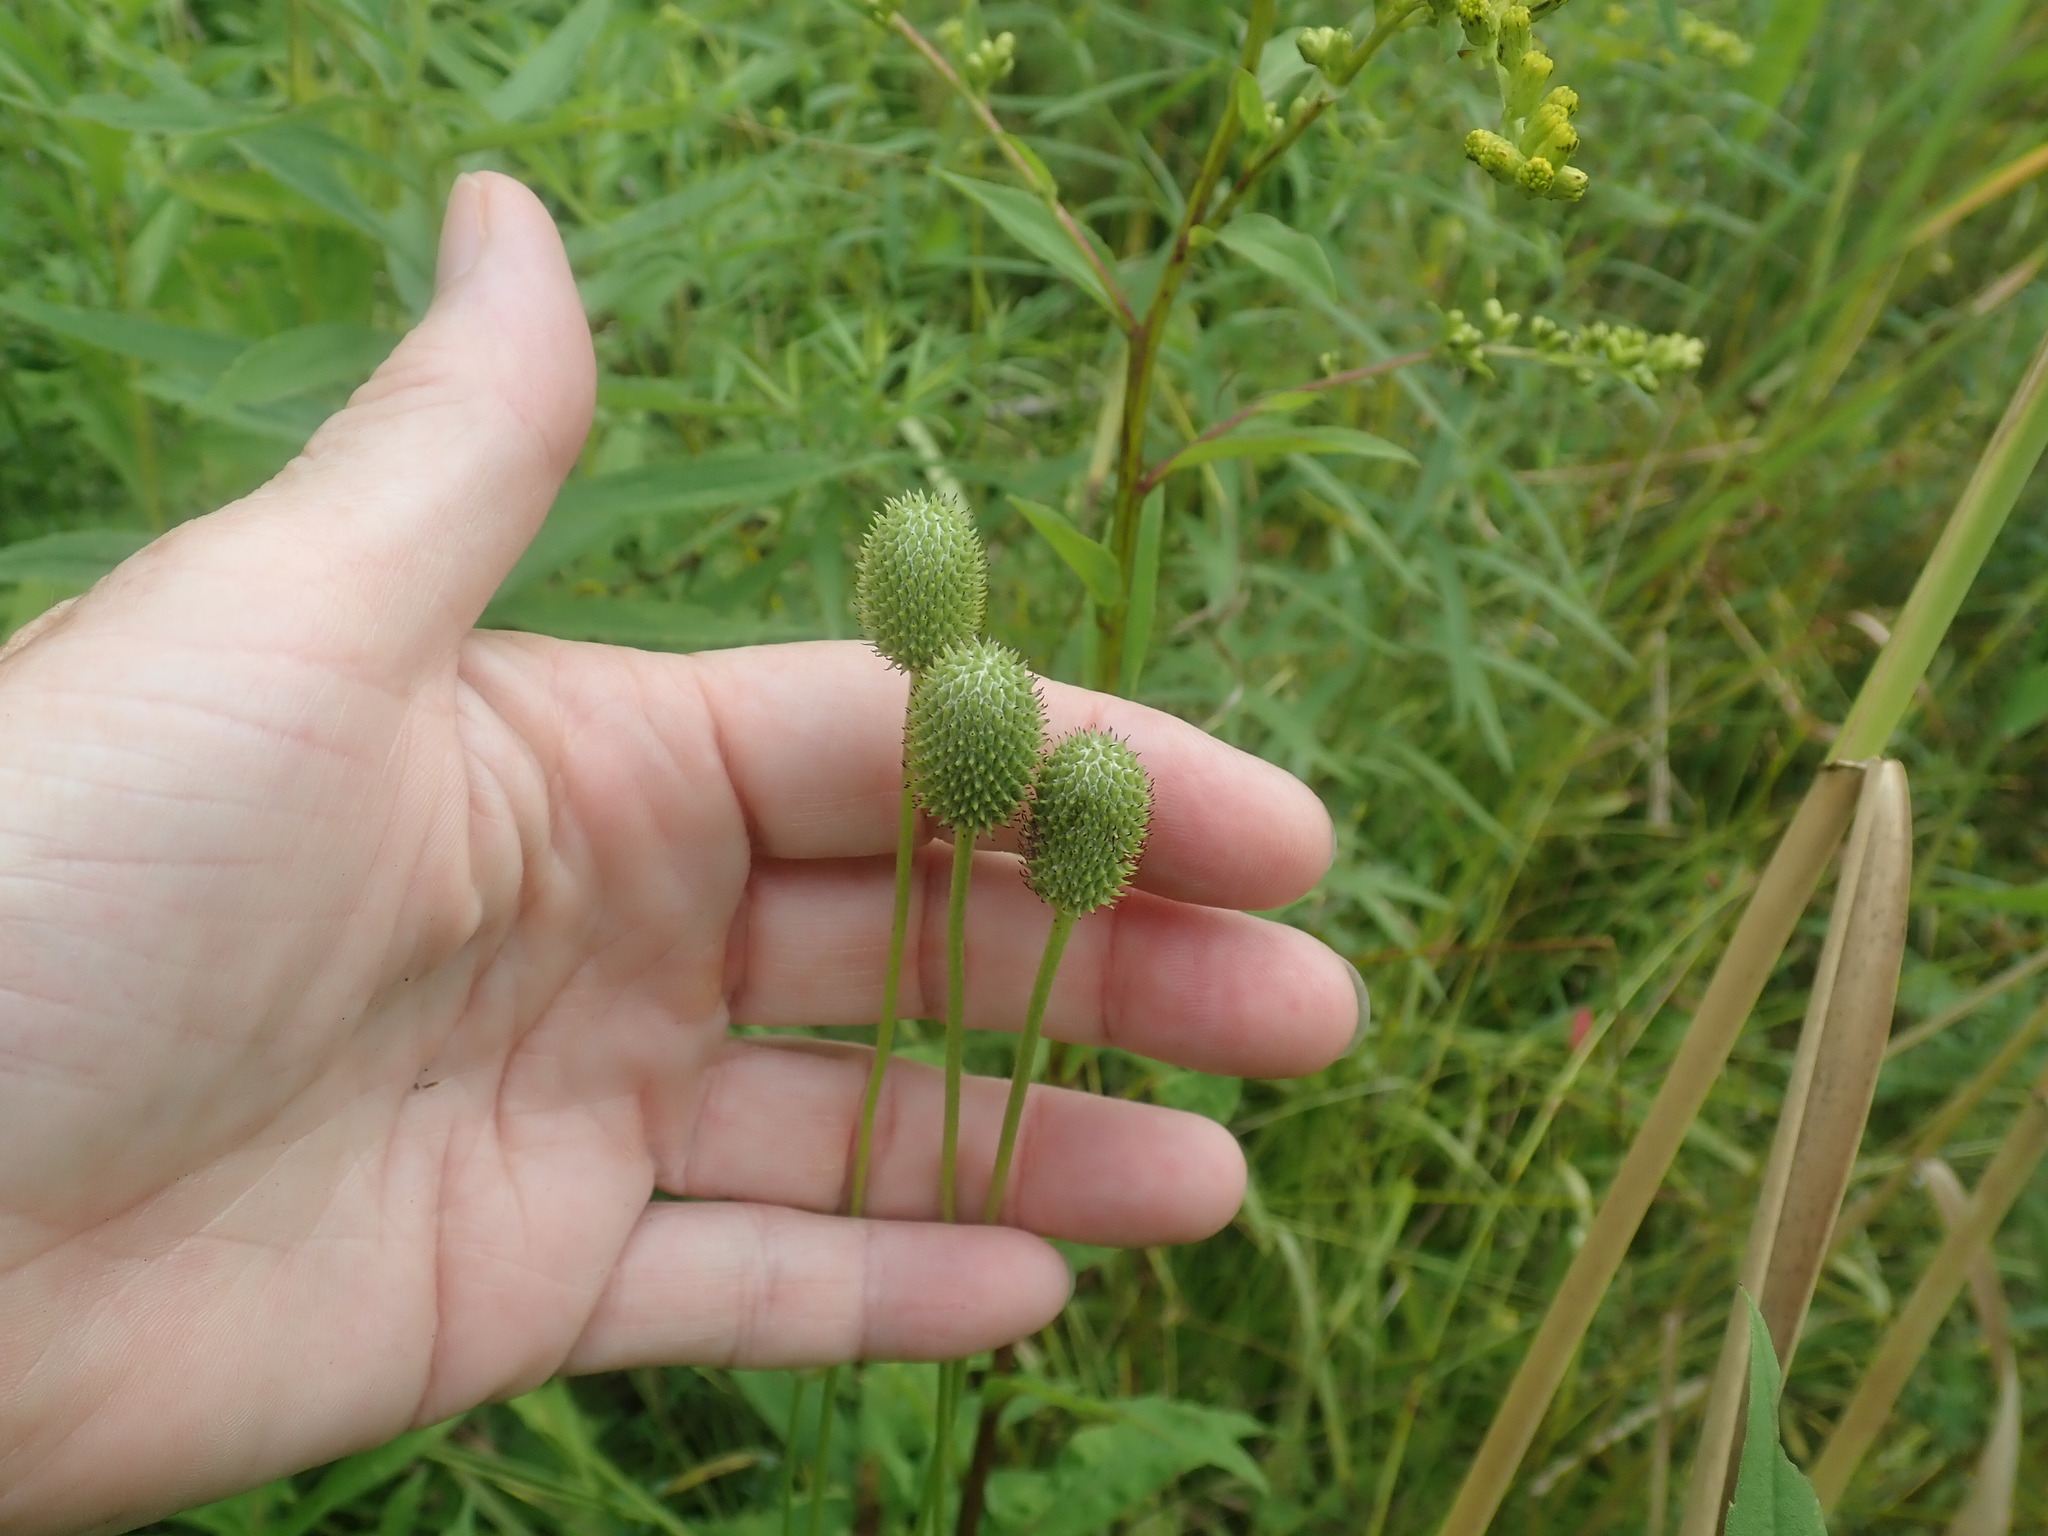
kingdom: Plantae
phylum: Tracheophyta
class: Magnoliopsida
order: Ranunculales
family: Ranunculaceae
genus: Anemone
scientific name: Anemone virginiana
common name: Tall anemone
